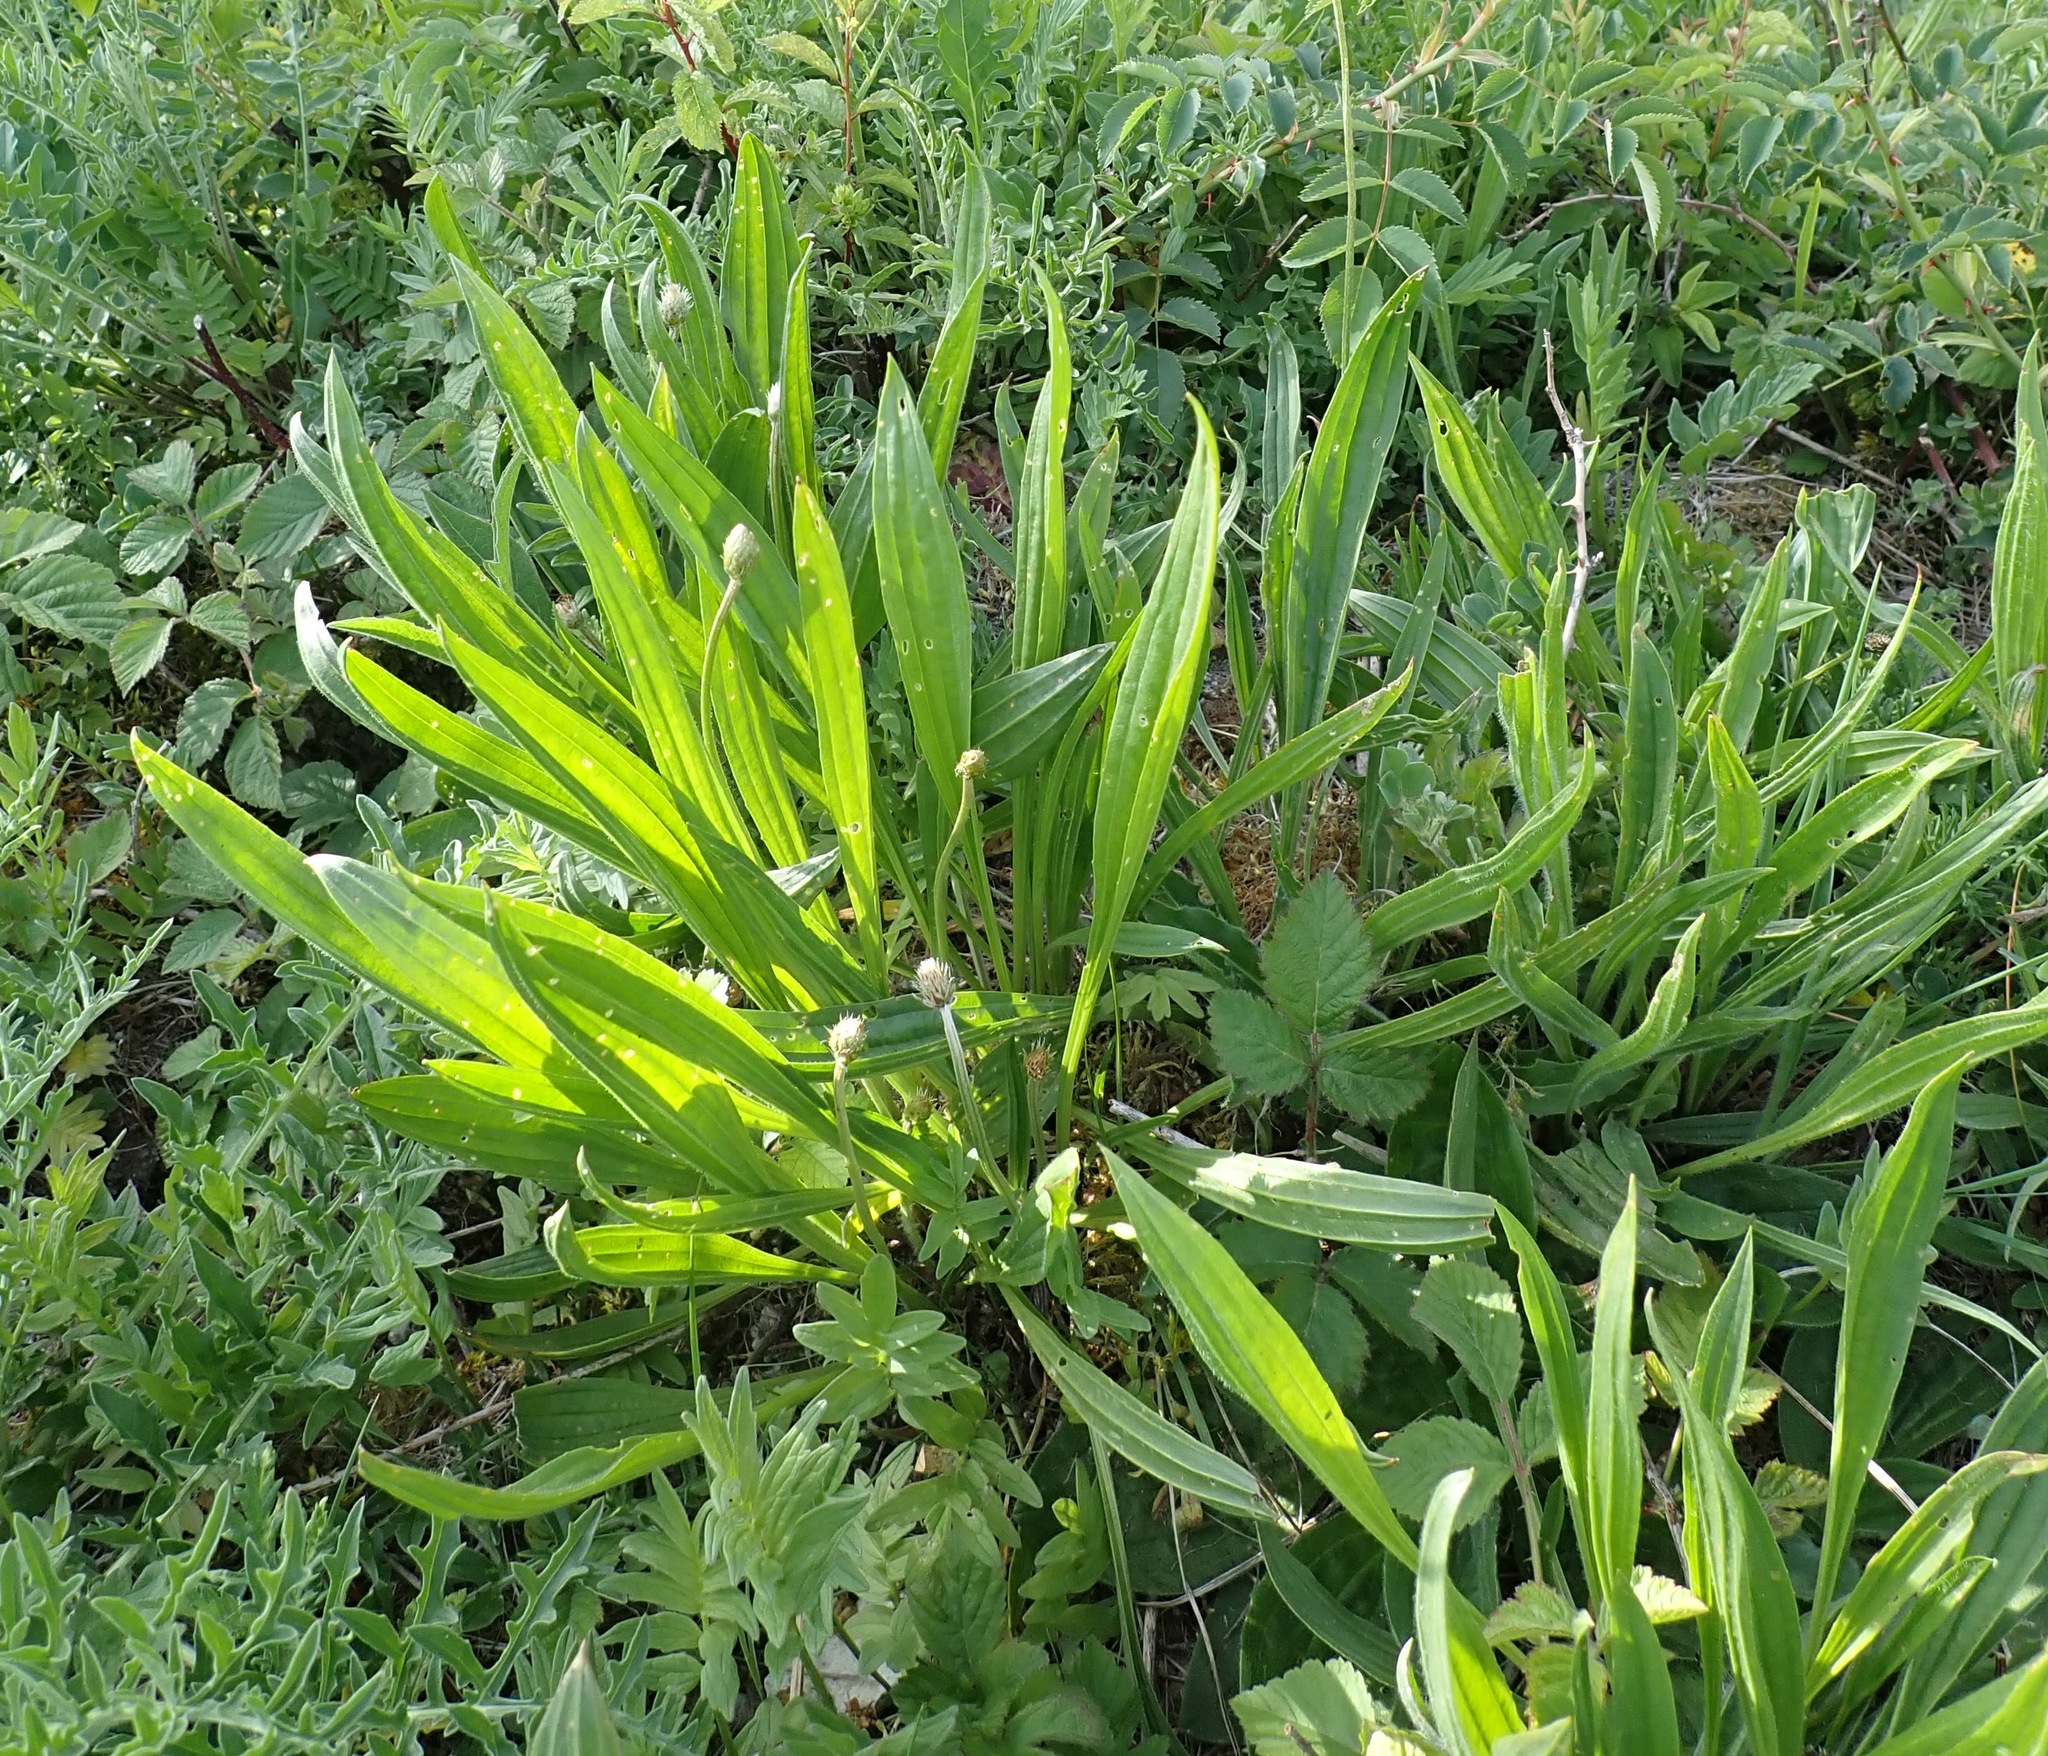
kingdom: Plantae
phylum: Tracheophyta
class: Magnoliopsida
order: Lamiales
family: Plantaginaceae
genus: Plantago
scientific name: Plantago lanceolata
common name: Ribwort plantain
